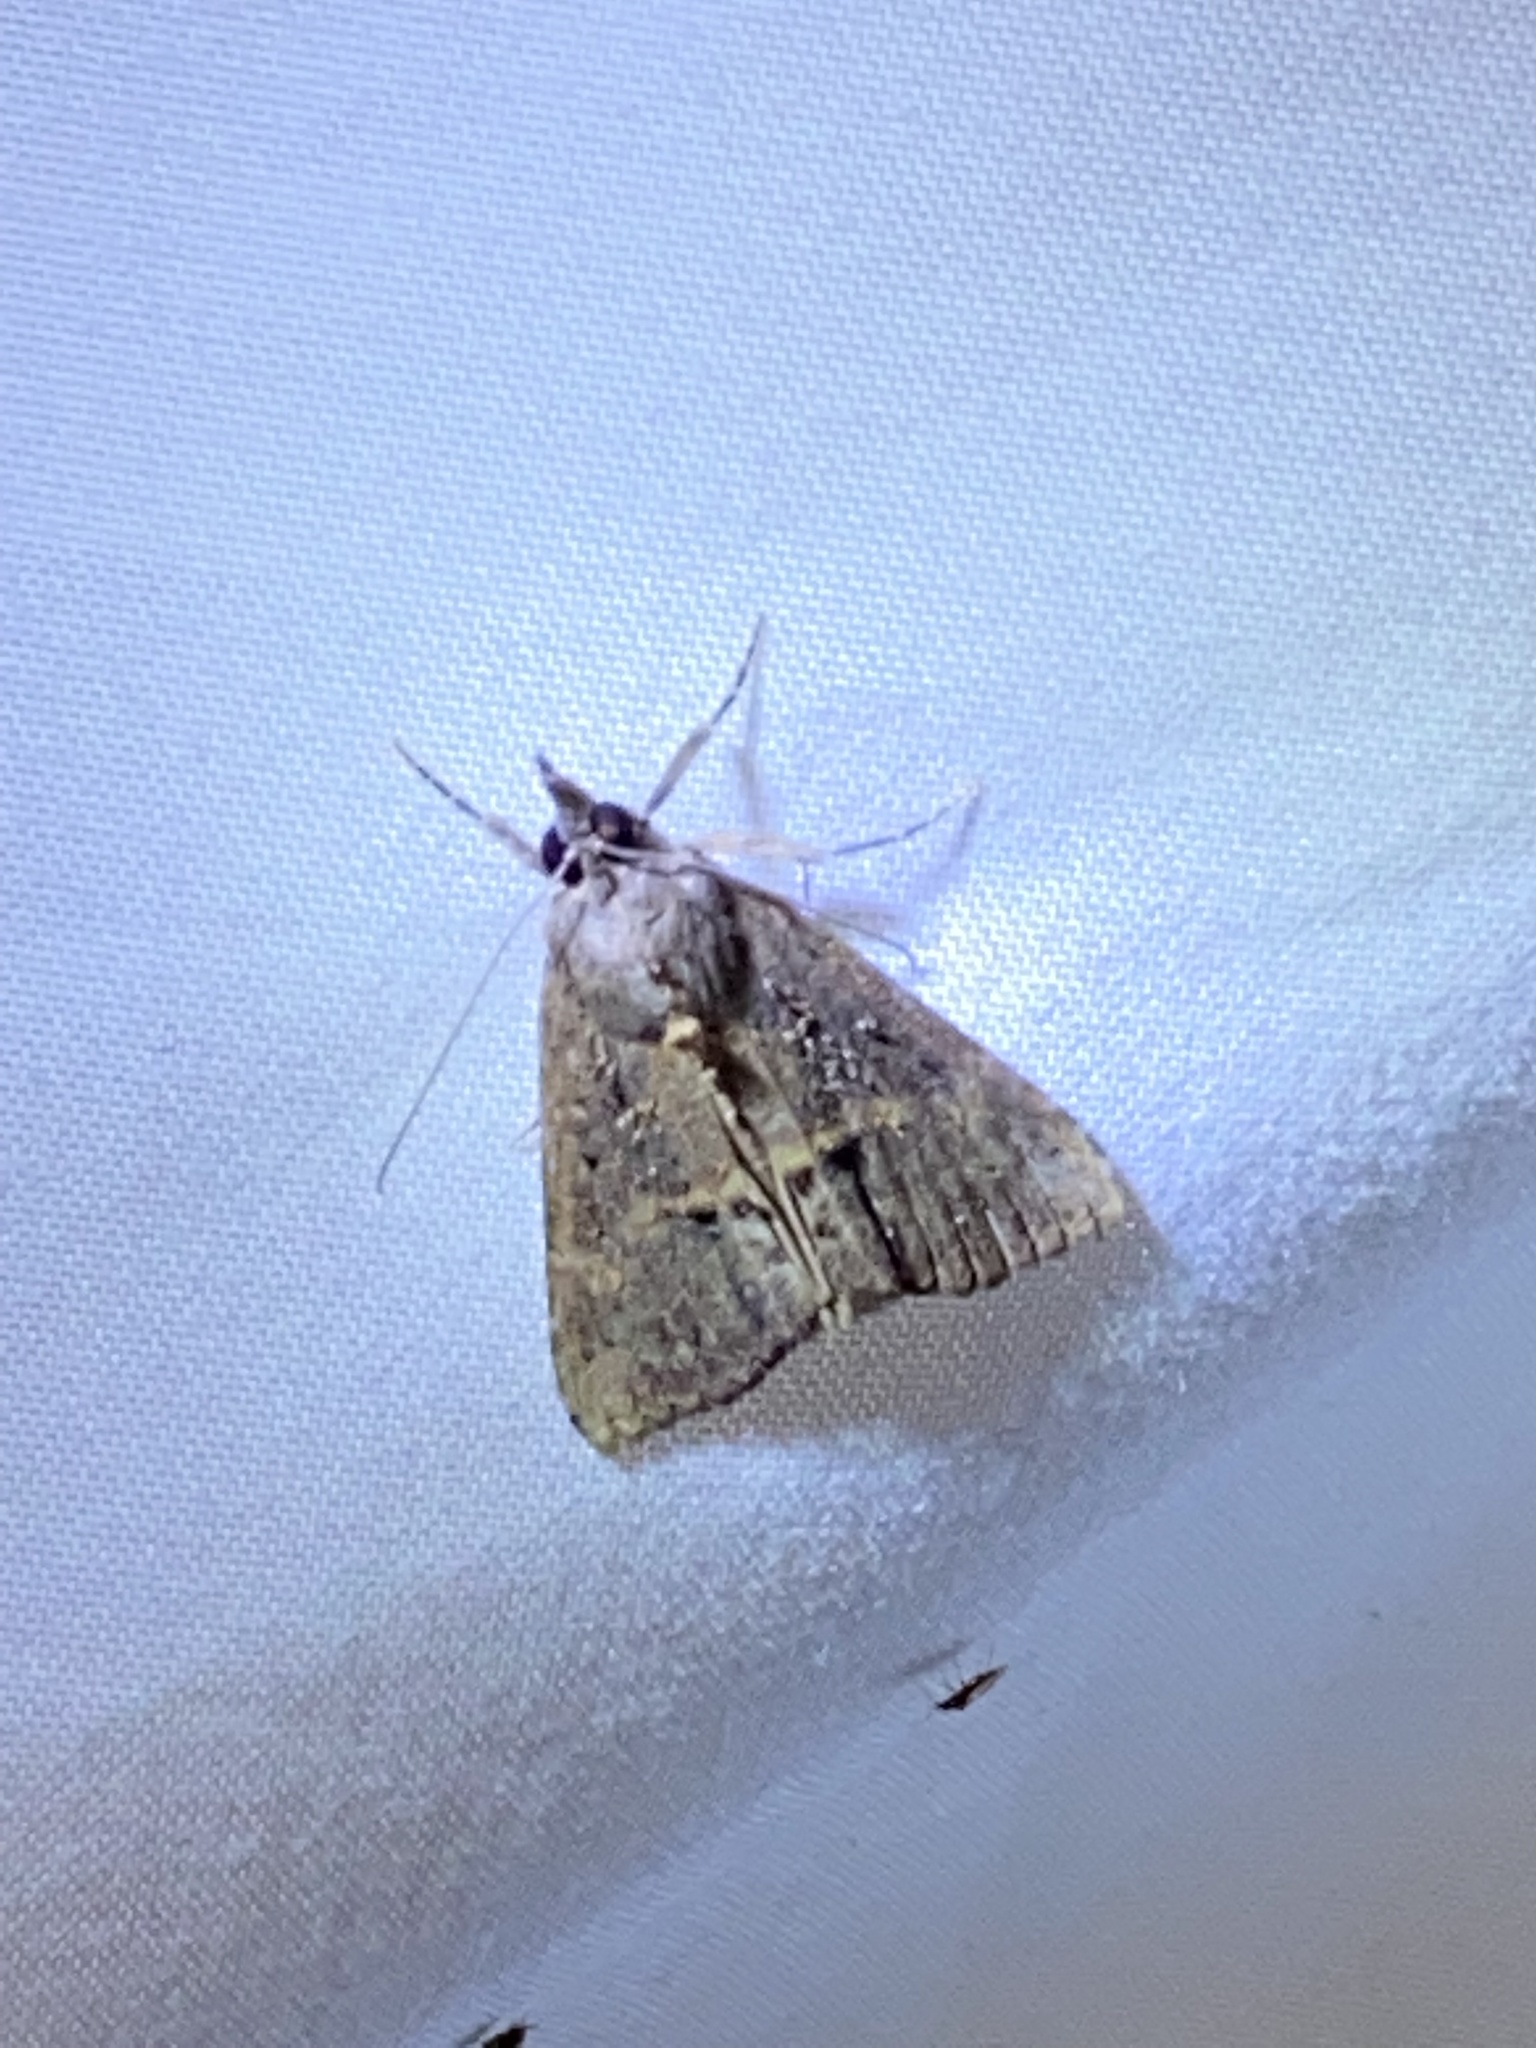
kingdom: Animalia
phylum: Arthropoda
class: Insecta
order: Lepidoptera
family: Erebidae
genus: Hypena
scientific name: Hypena scabra
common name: Green cloverworm
